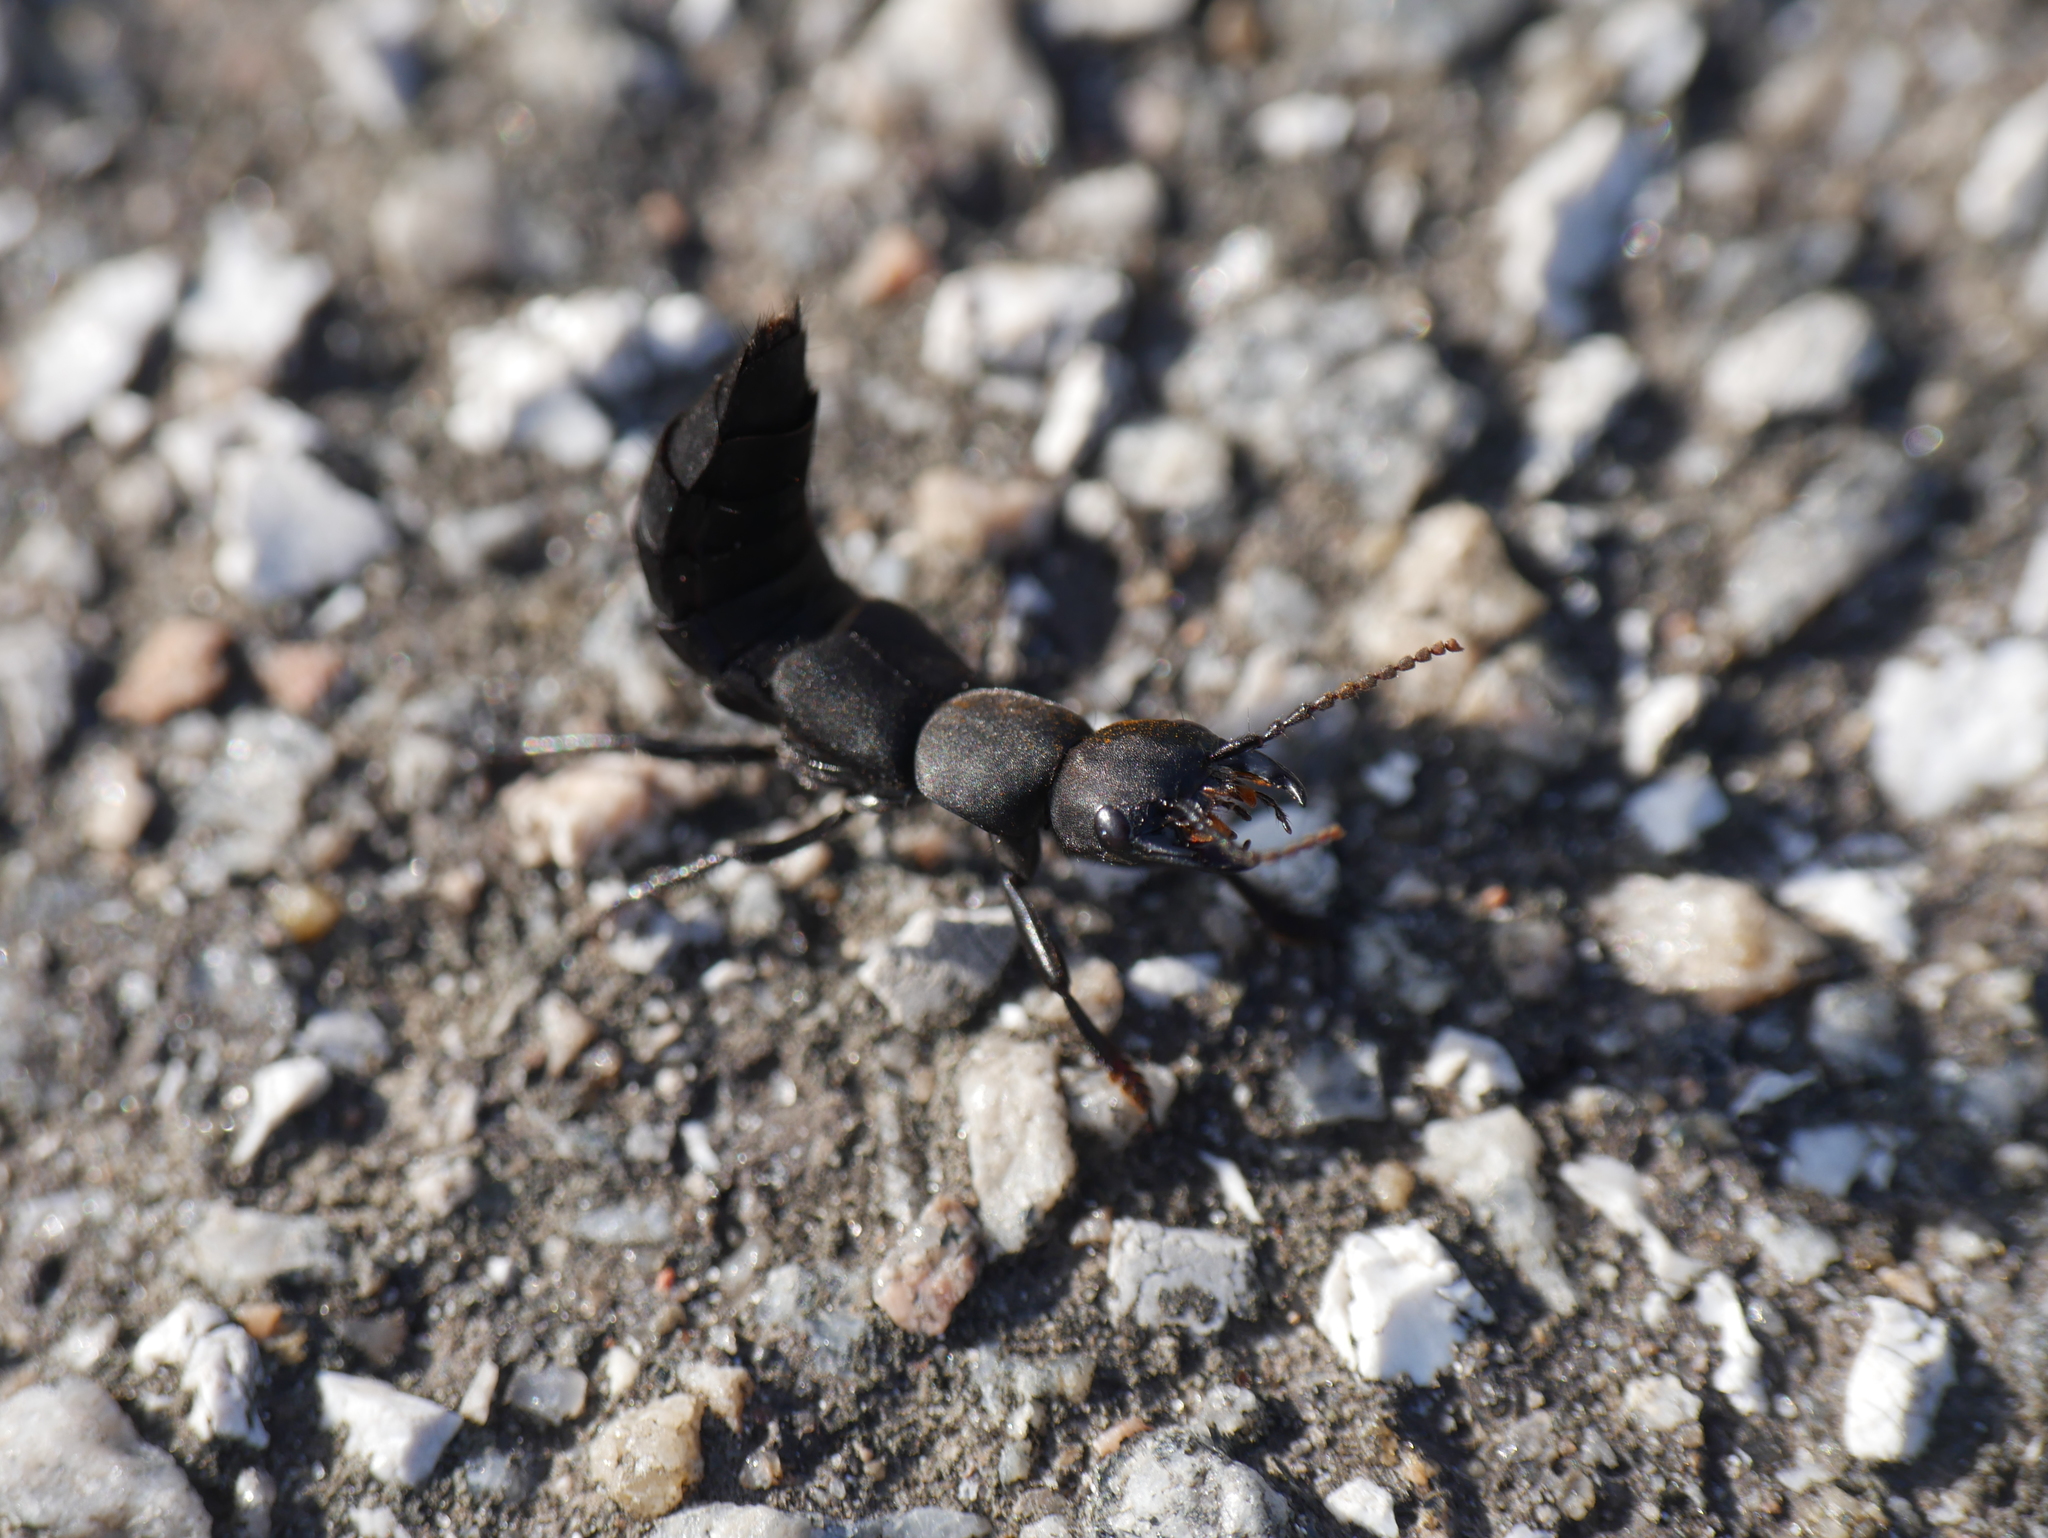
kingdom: Animalia
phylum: Arthropoda
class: Insecta
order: Coleoptera
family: Staphylinidae
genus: Ocypus
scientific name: Ocypus olens
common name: Devil's coach-horse
